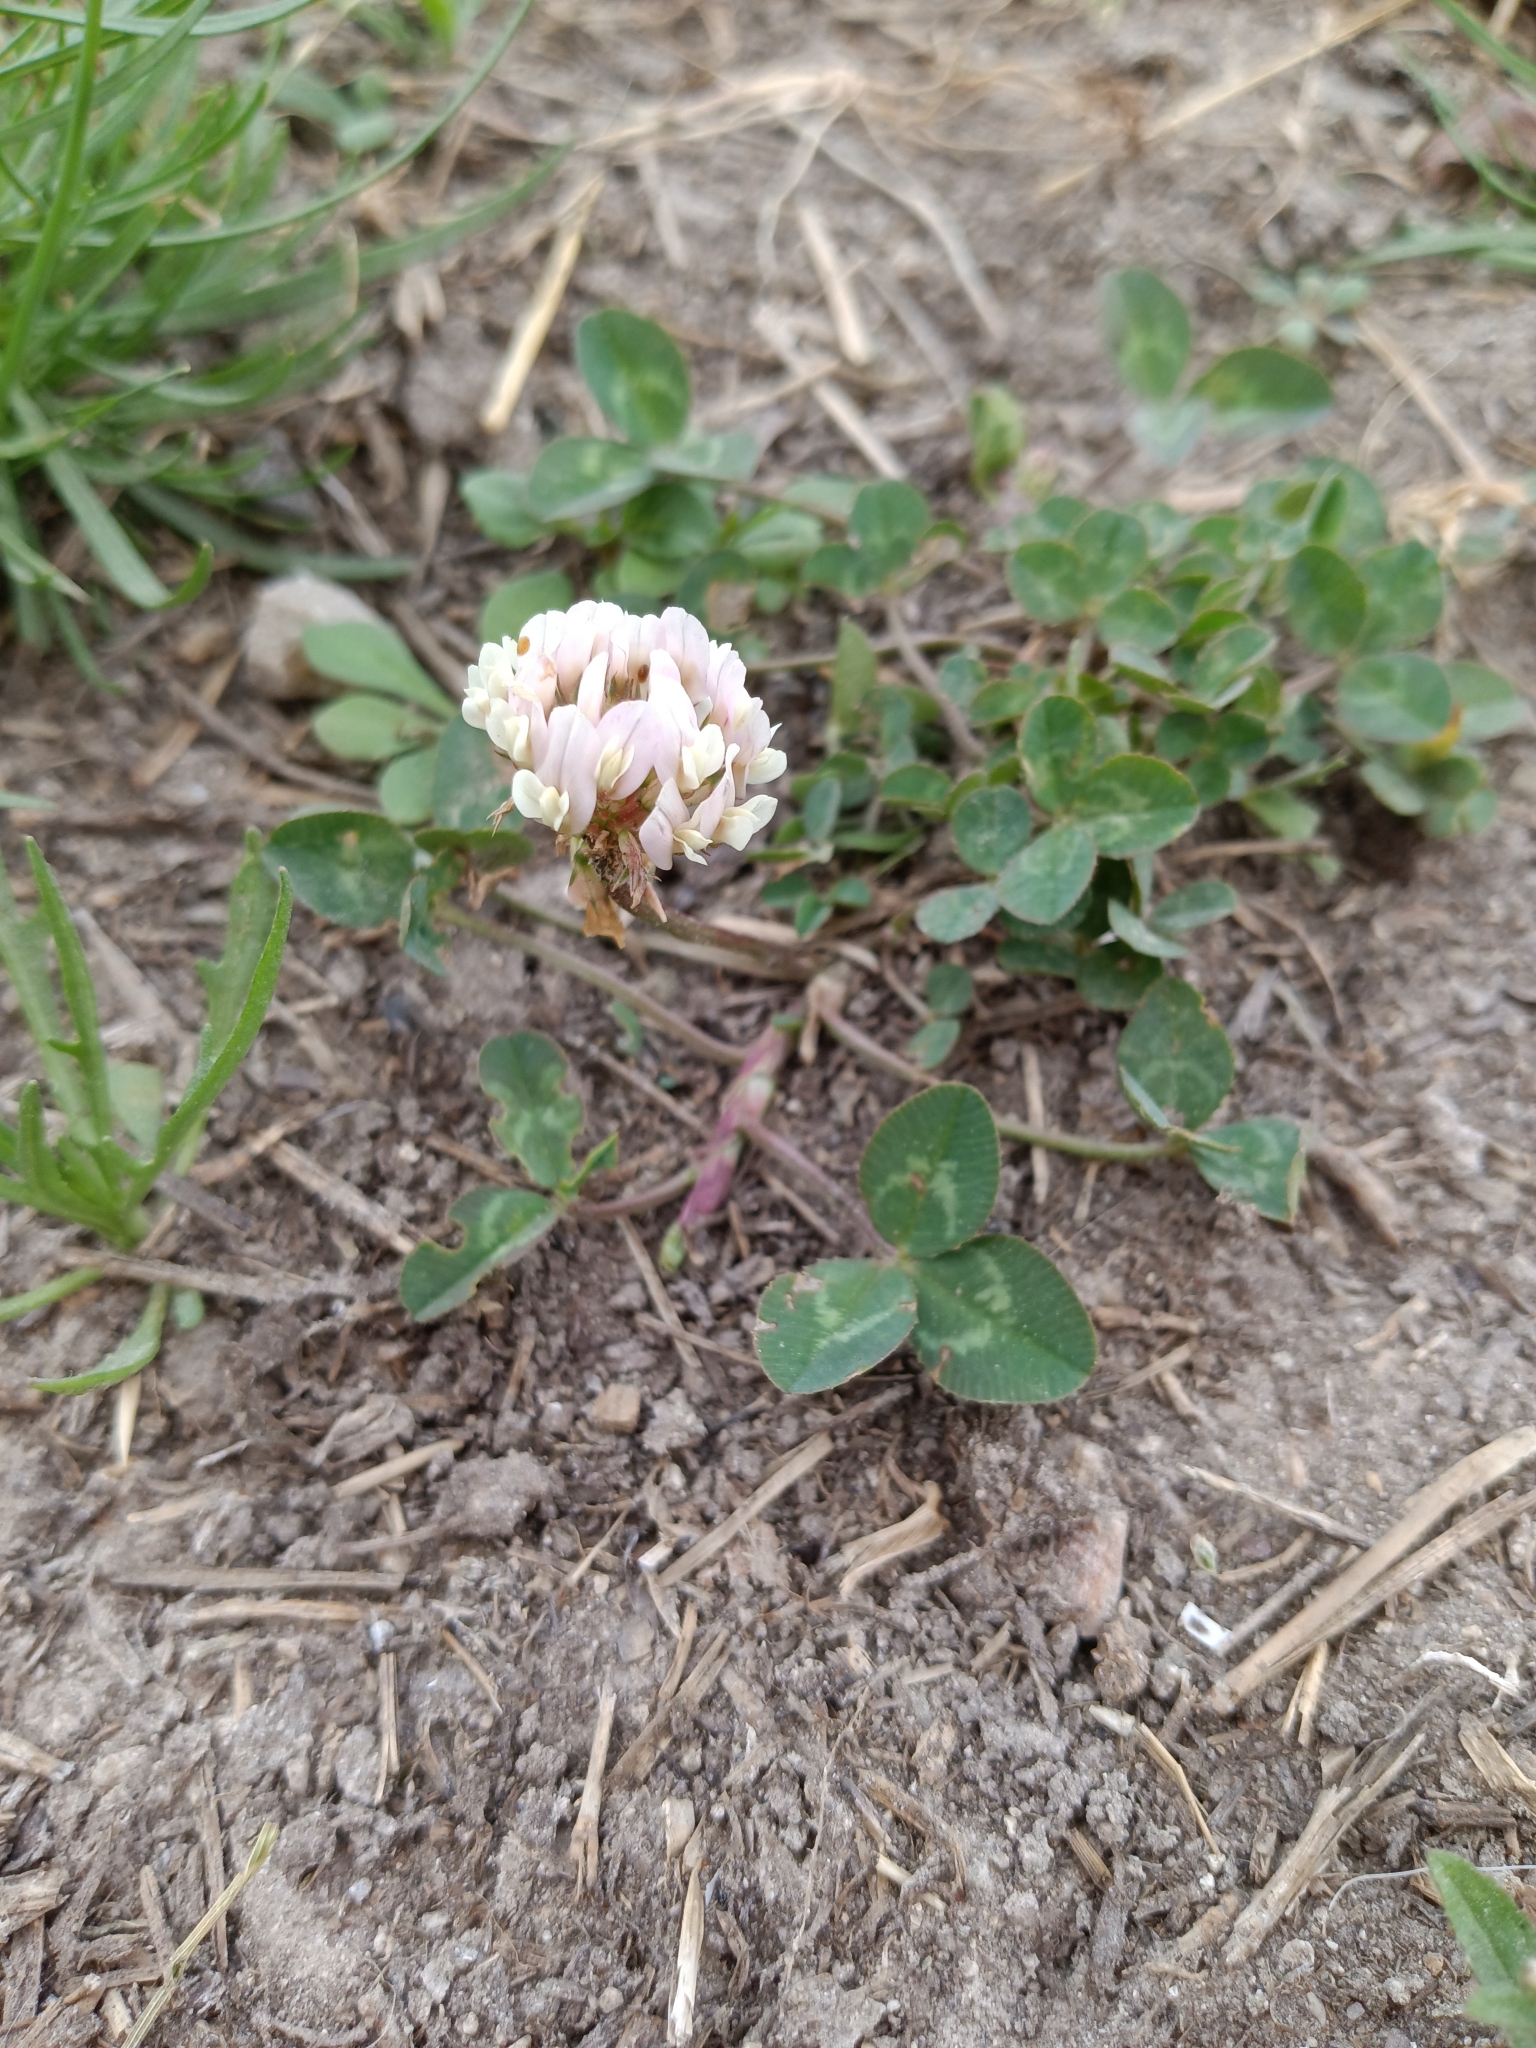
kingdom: Plantae
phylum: Tracheophyta
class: Magnoliopsida
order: Fabales
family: Fabaceae
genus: Trifolium
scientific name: Trifolium repens
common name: White clover
